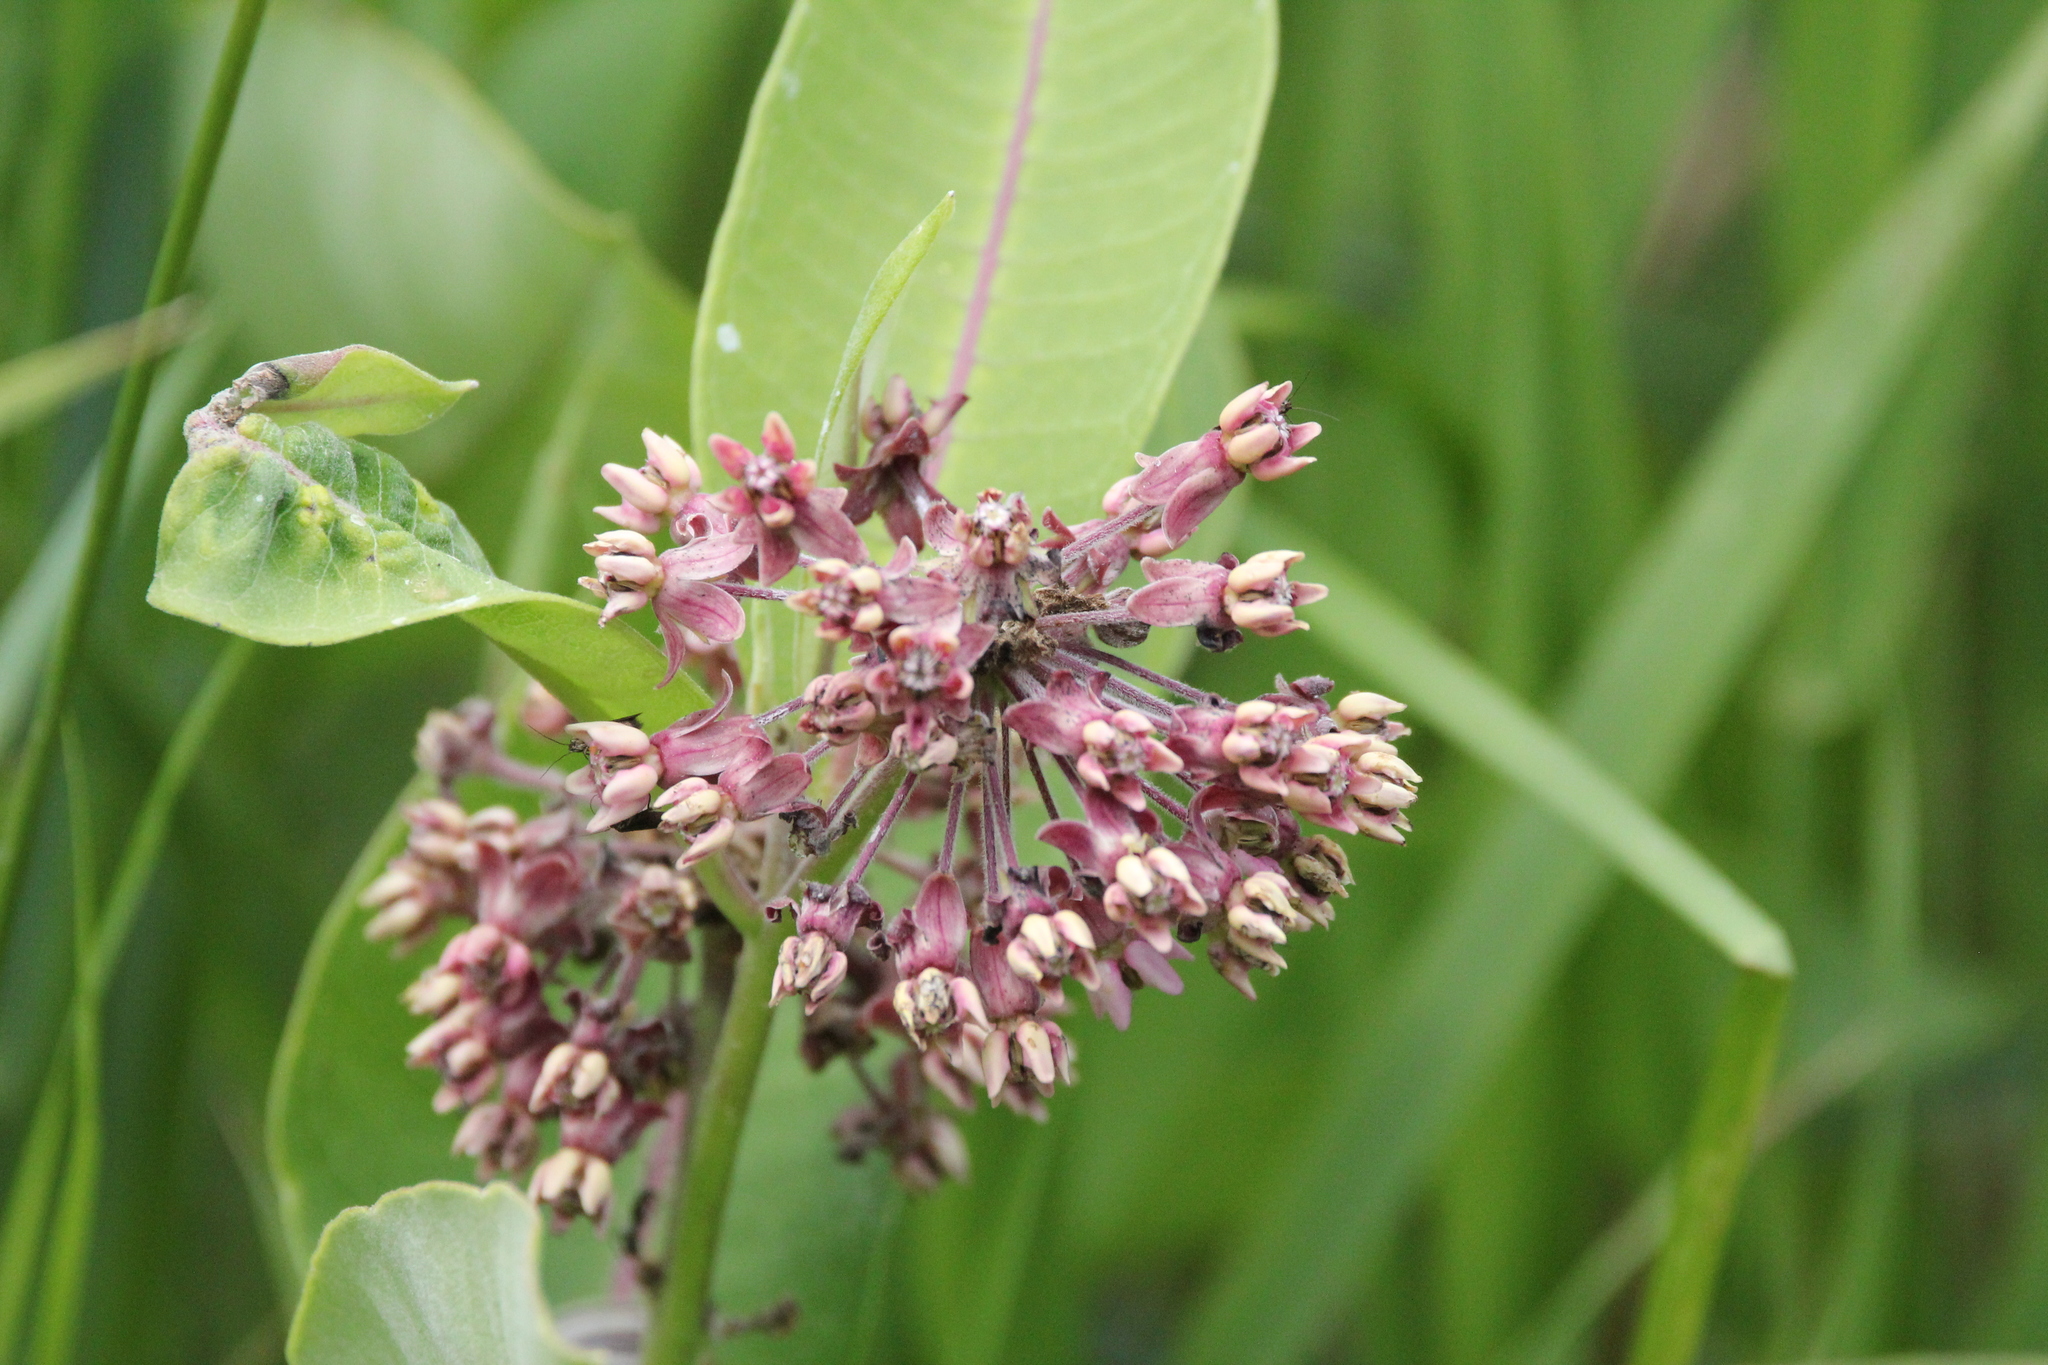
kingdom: Plantae
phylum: Tracheophyta
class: Magnoliopsida
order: Gentianales
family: Apocynaceae
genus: Asclepias
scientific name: Asclepias syriaca
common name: Common milkweed
